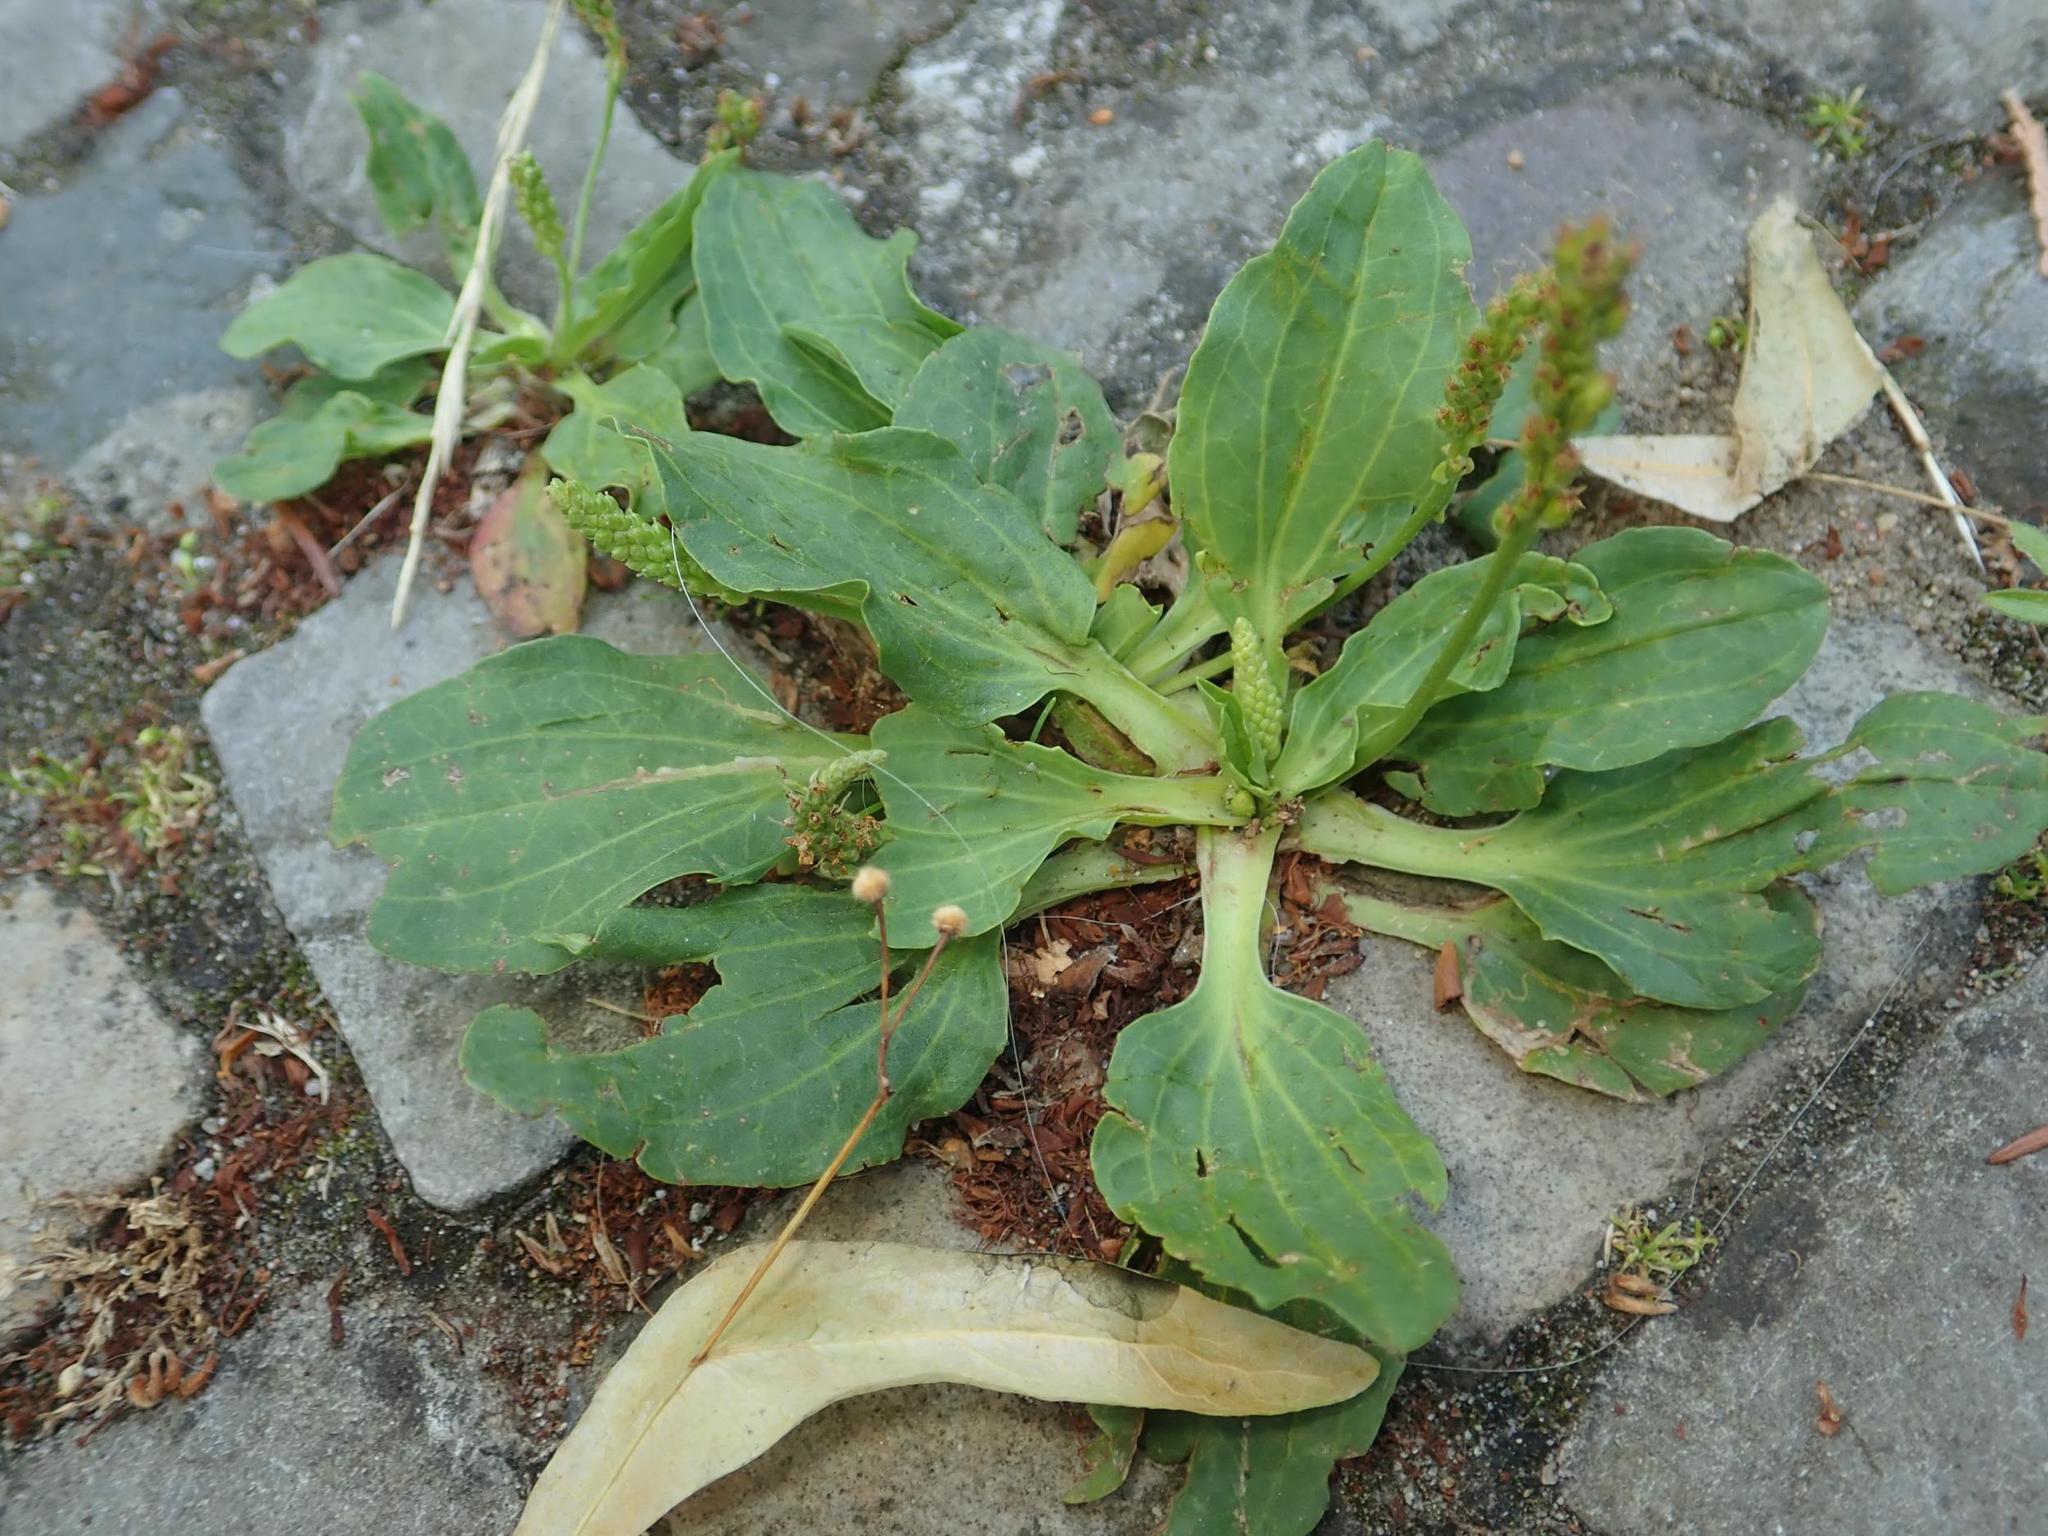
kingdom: Plantae
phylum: Tracheophyta
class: Magnoliopsida
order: Lamiales
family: Plantaginaceae
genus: Plantago
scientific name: Plantago major
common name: Common plantain
